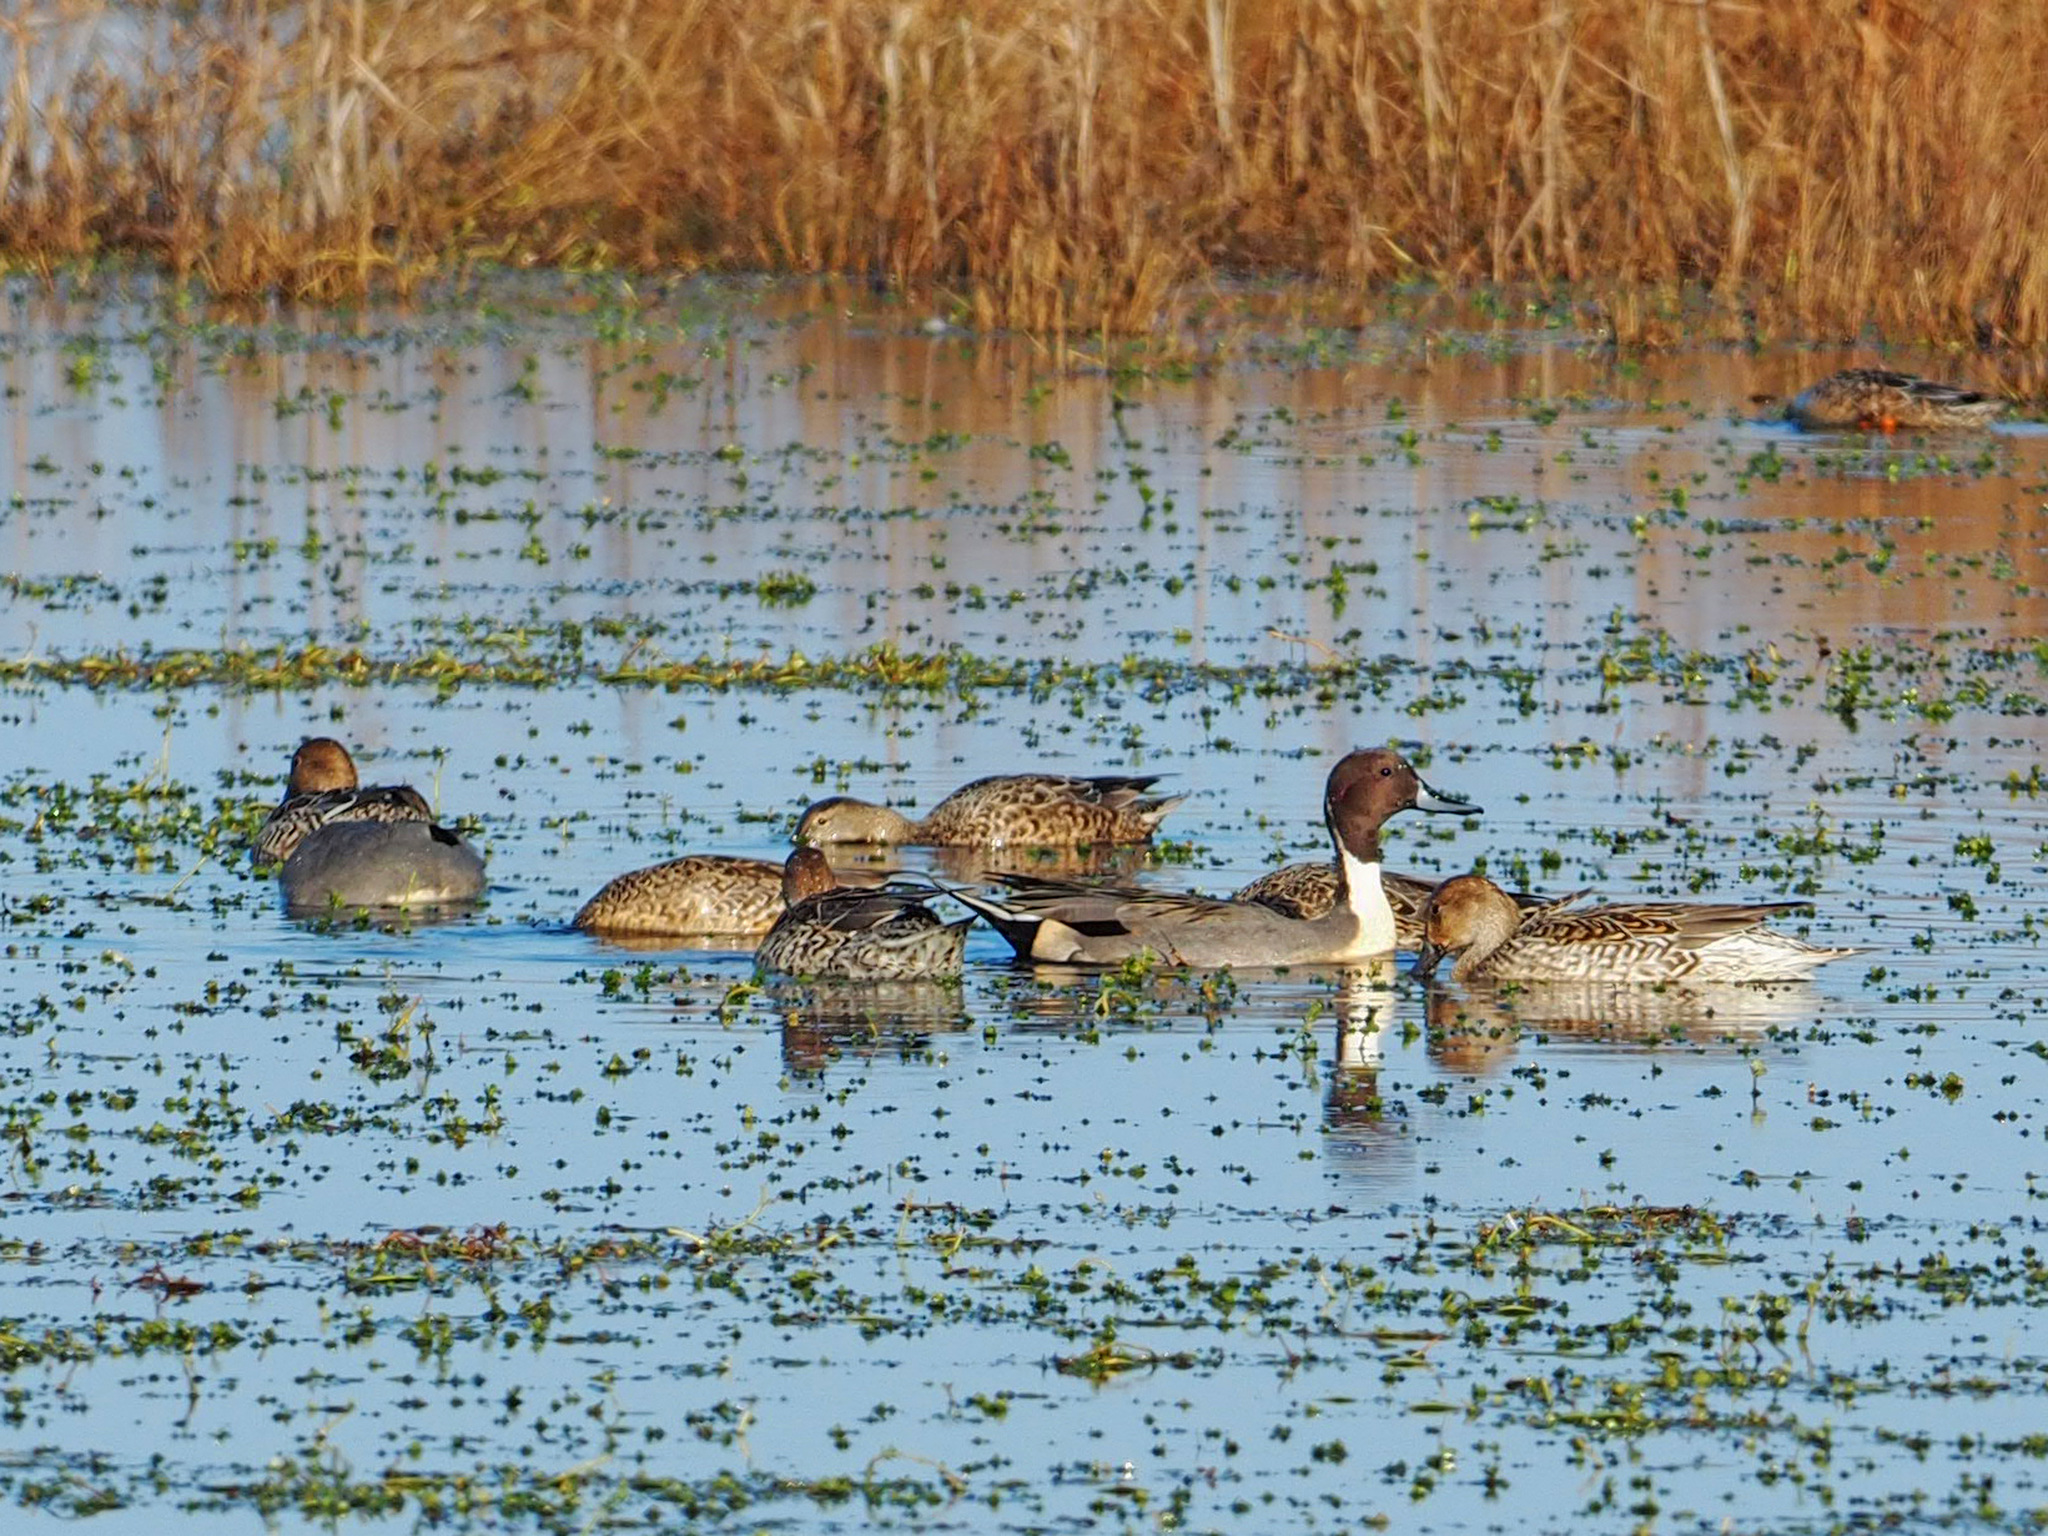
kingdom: Animalia
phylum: Chordata
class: Aves
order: Anseriformes
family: Anatidae
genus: Anas
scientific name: Anas acuta
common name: Northern pintail
